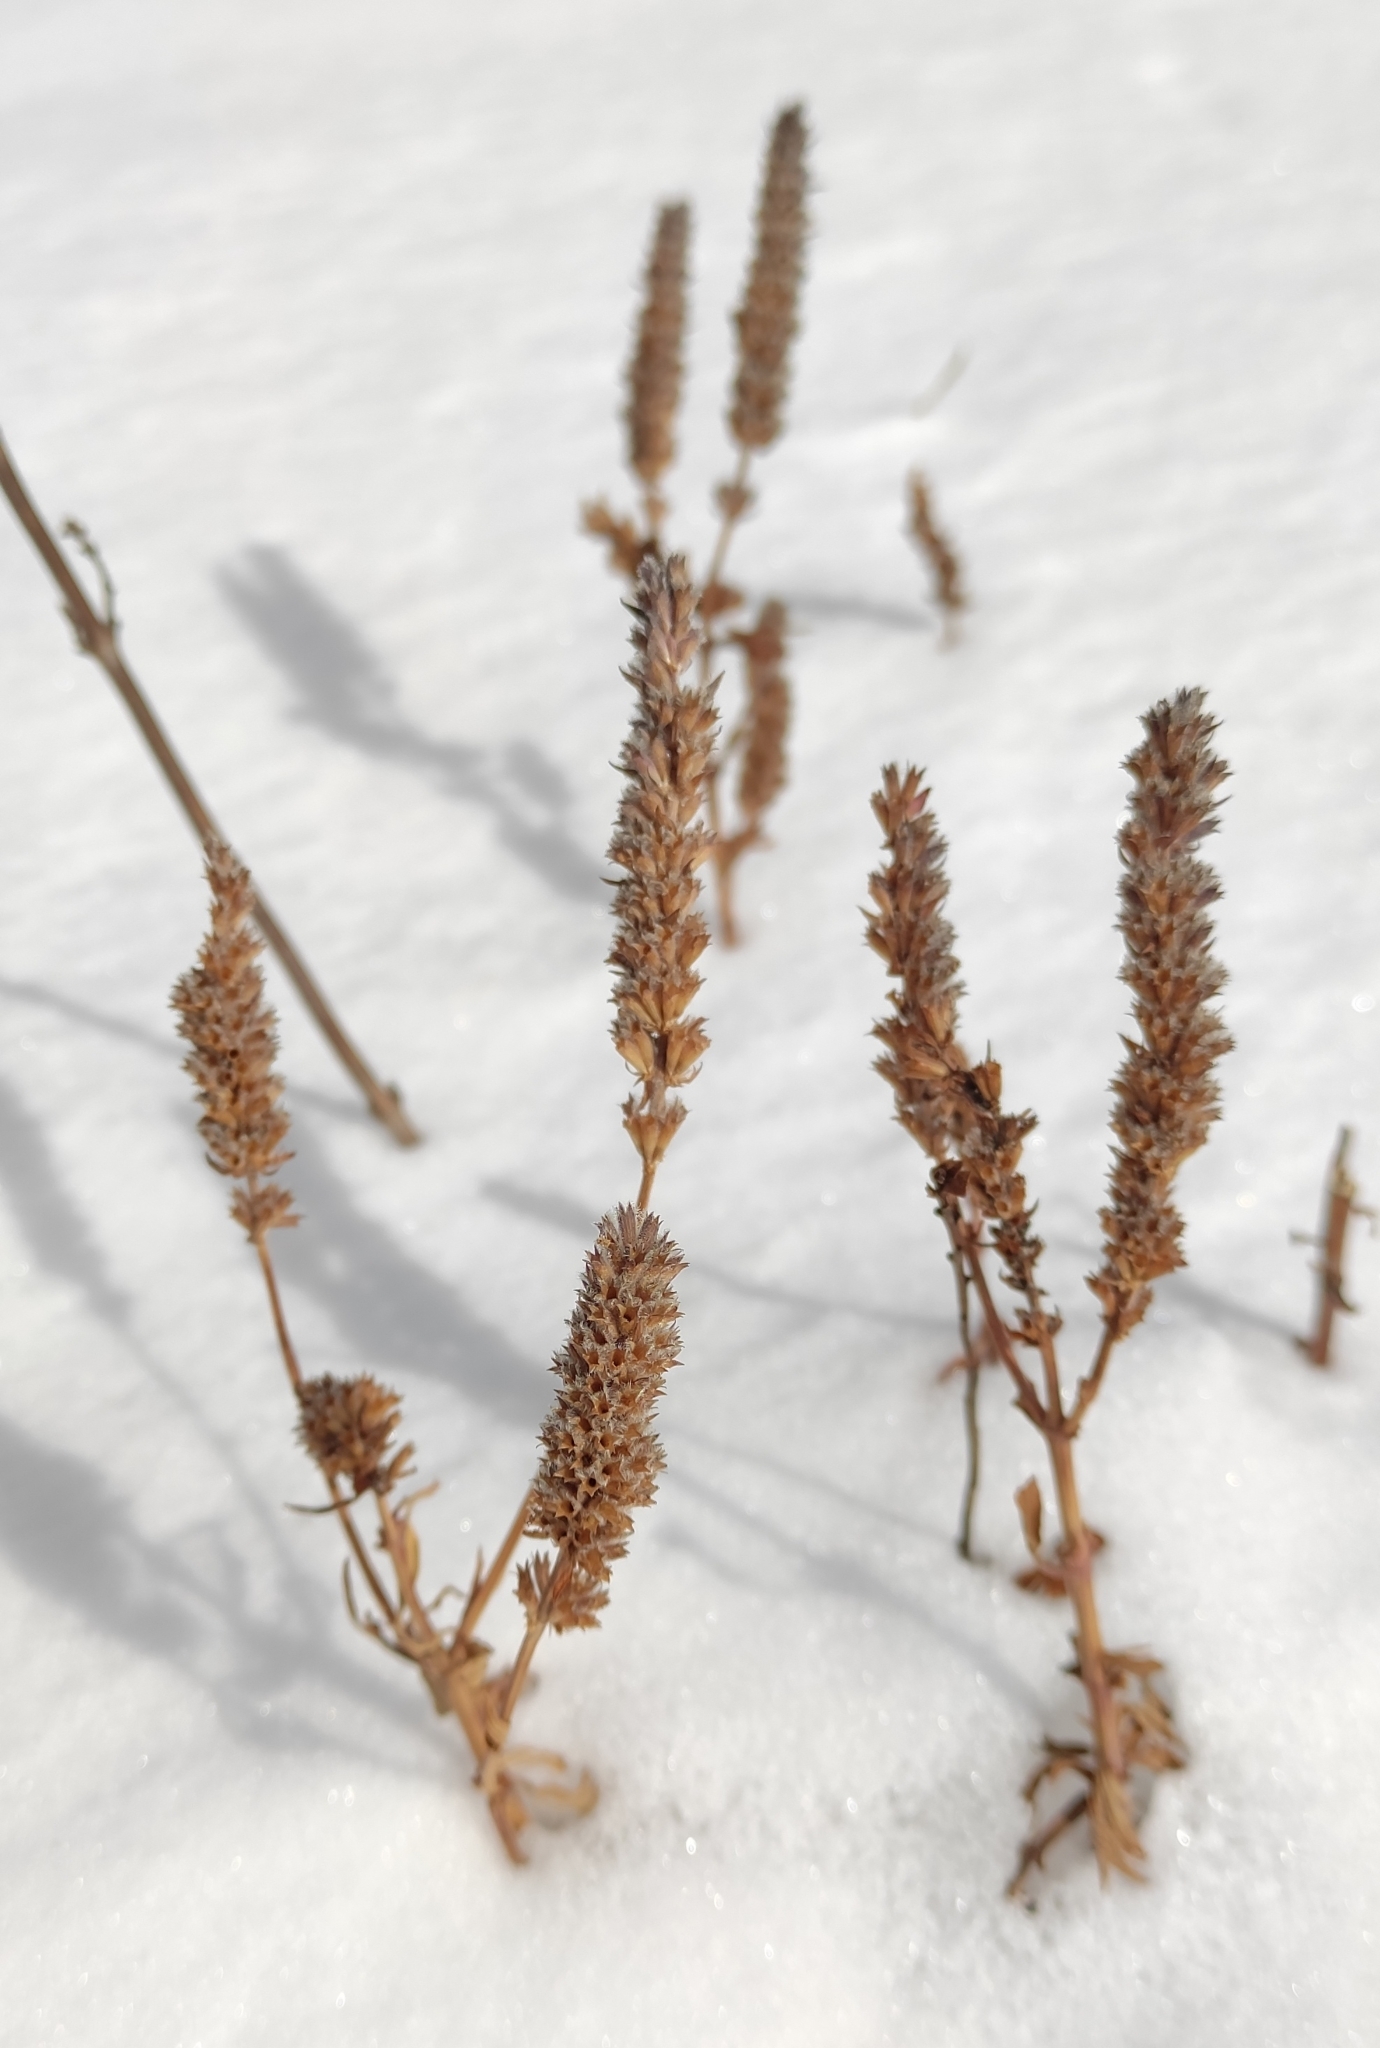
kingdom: Plantae
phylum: Tracheophyta
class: Magnoliopsida
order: Lamiales
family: Lamiaceae
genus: Nepeta
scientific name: Nepeta multifida
